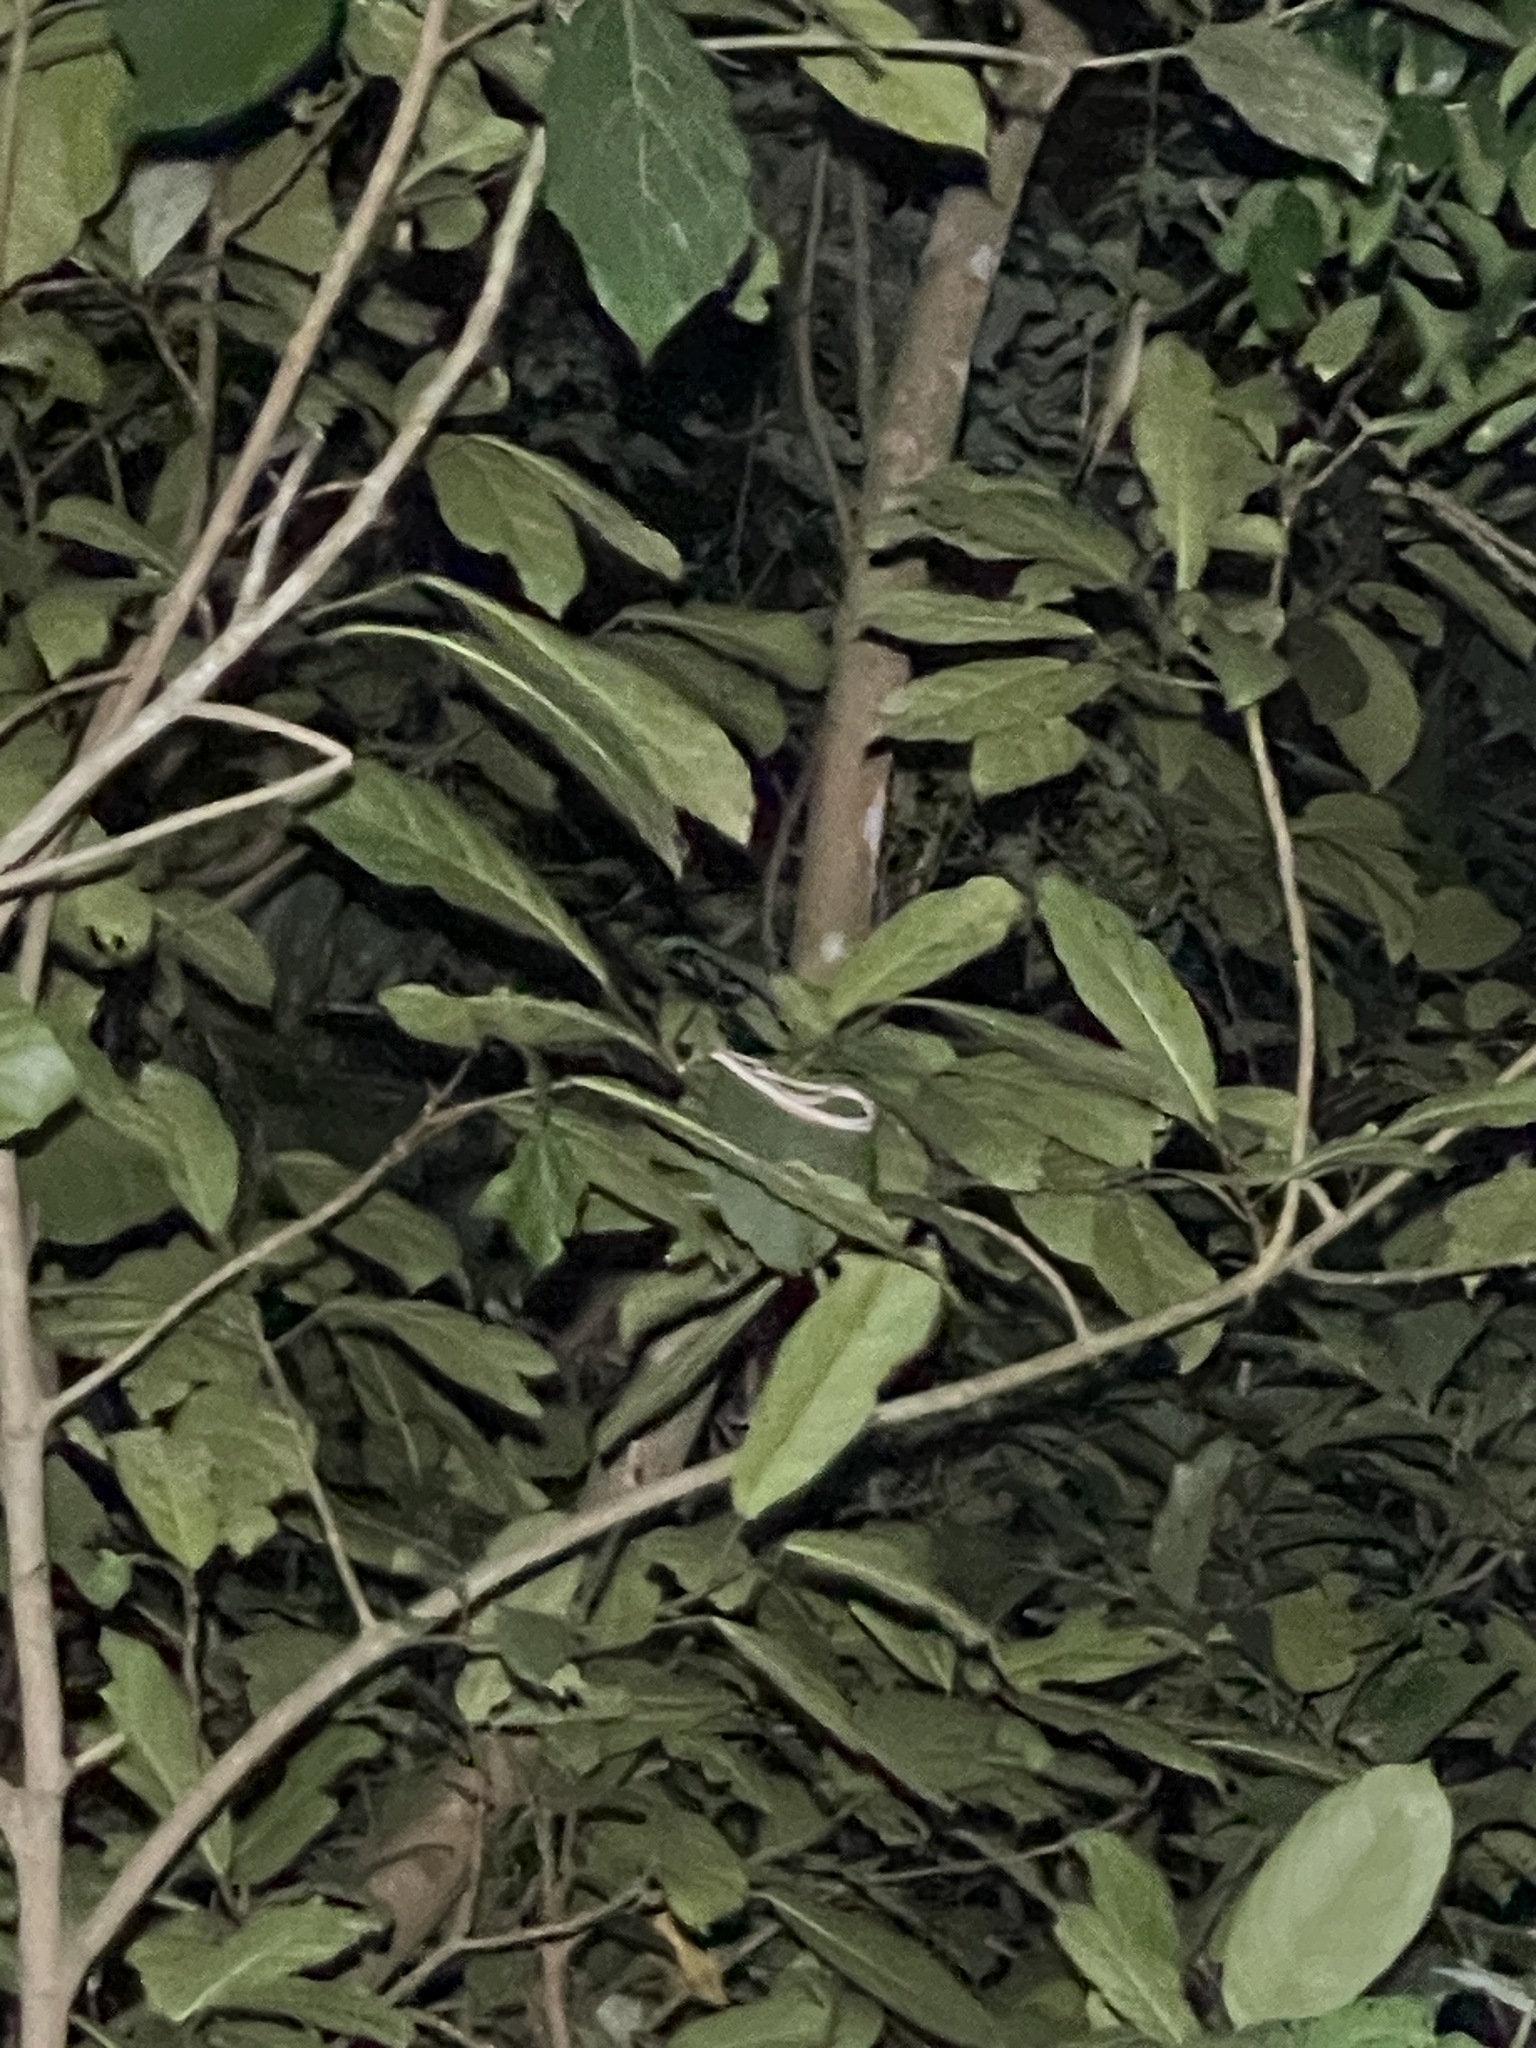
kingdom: Animalia
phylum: Chordata
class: Squamata
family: Colubridae
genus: Ahaetulla
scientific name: Ahaetulla prasina
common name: Oriental whip snake
